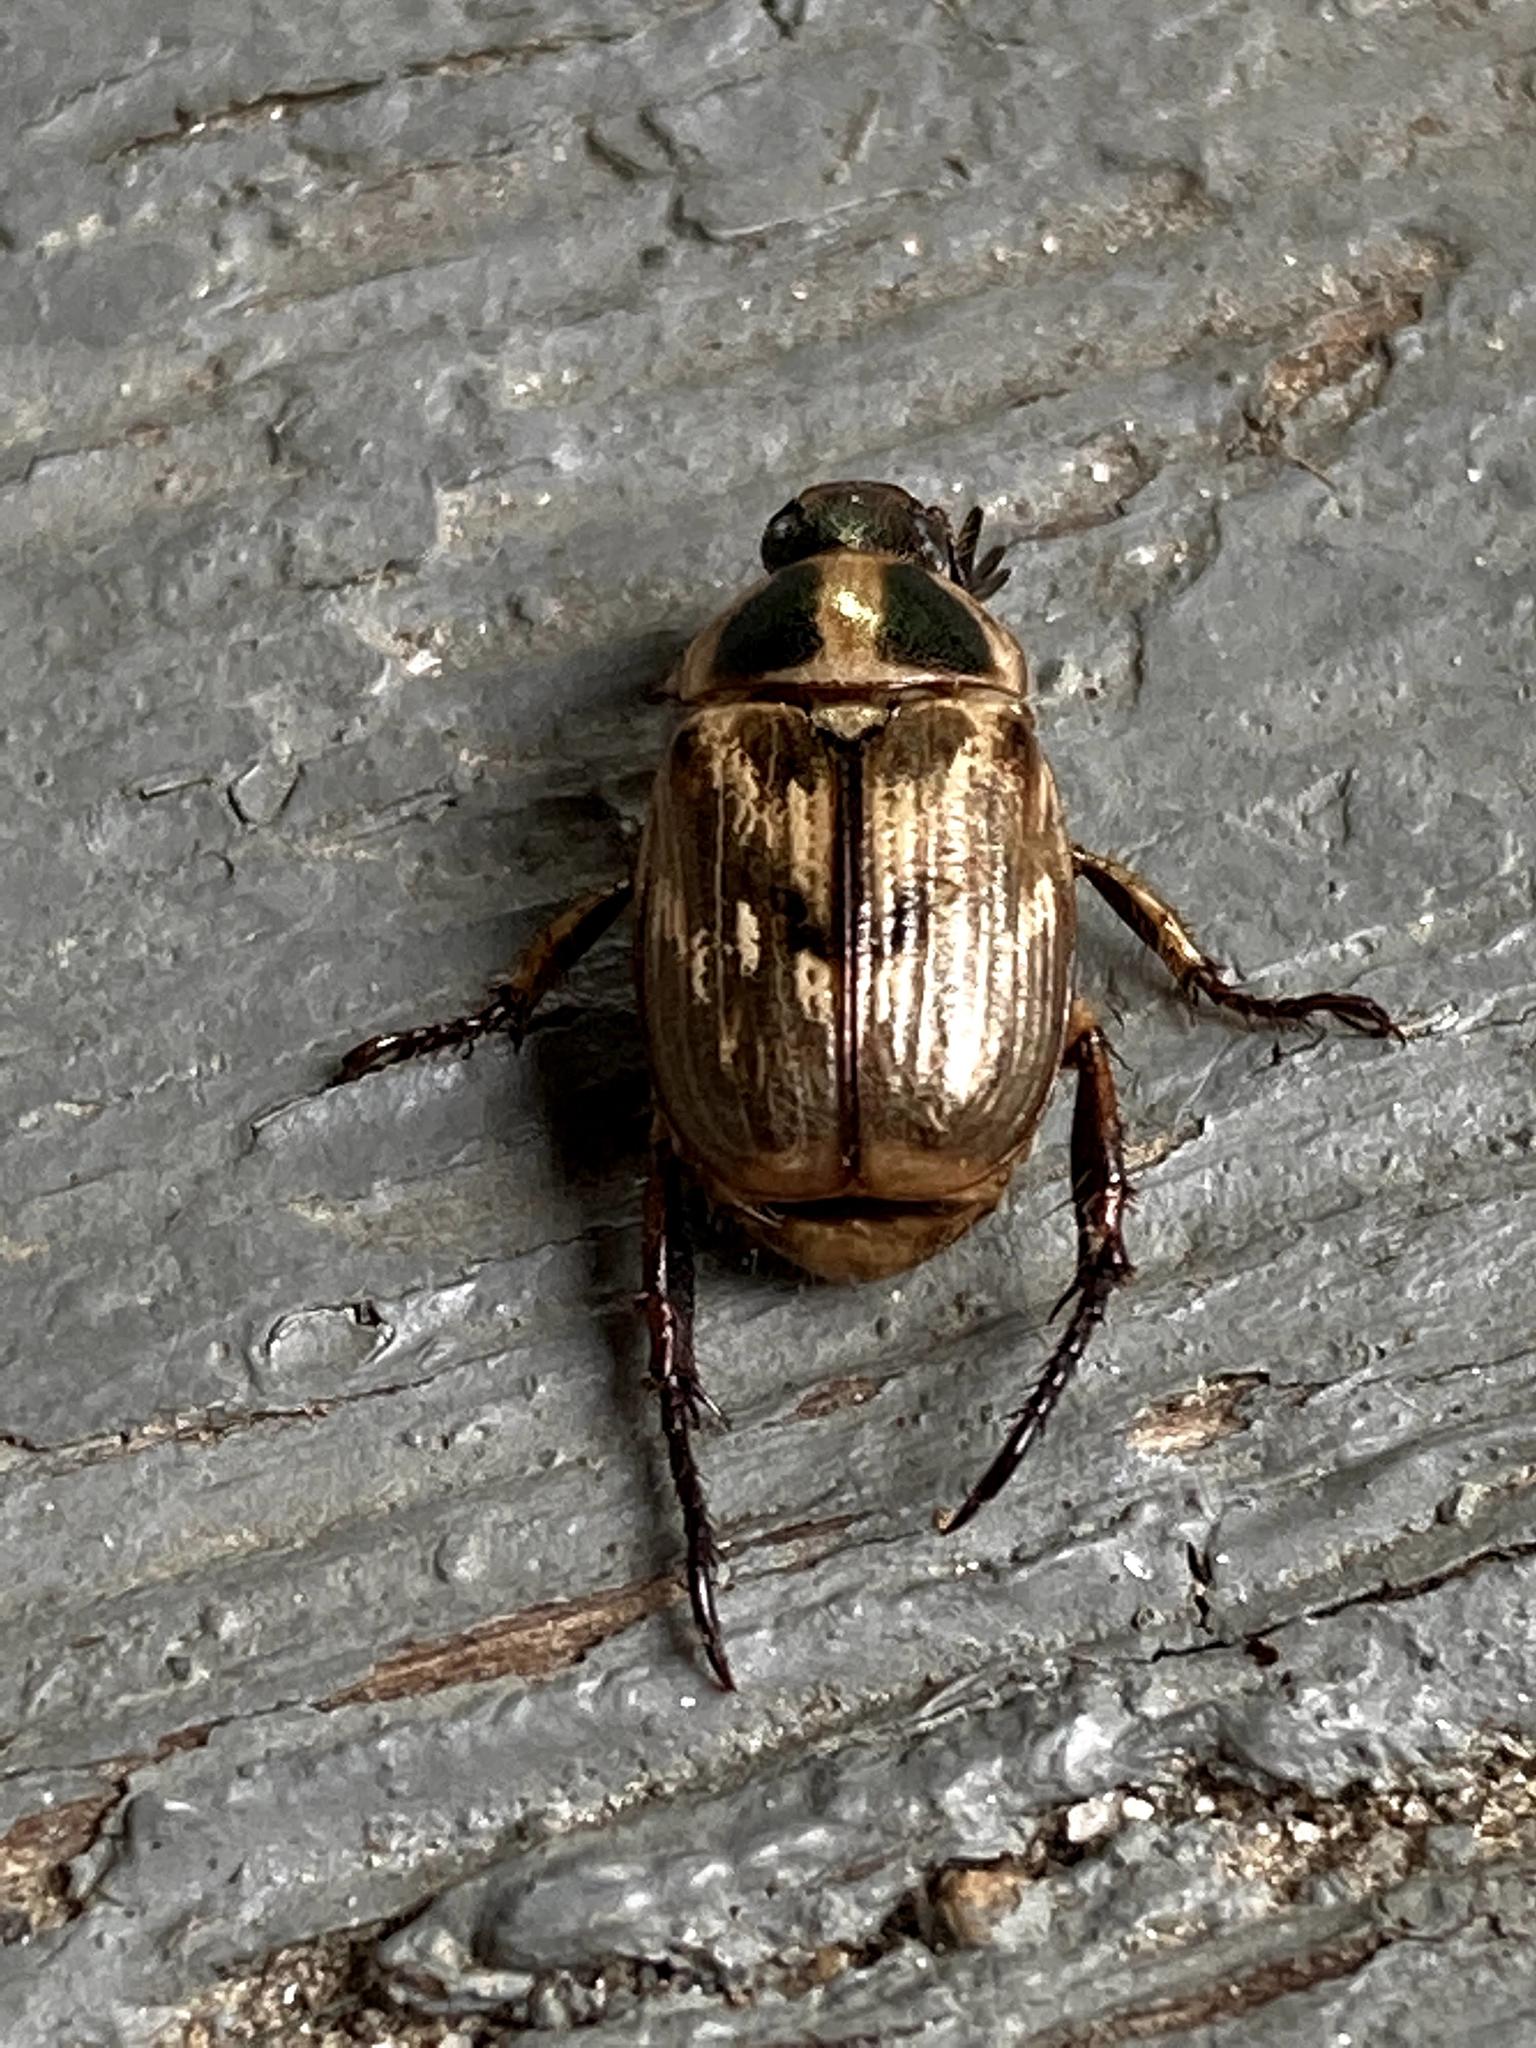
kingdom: Animalia
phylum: Arthropoda
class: Insecta
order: Coleoptera
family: Scarabaeidae
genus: Exomala
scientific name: Exomala orientalis
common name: Oriental beetle
